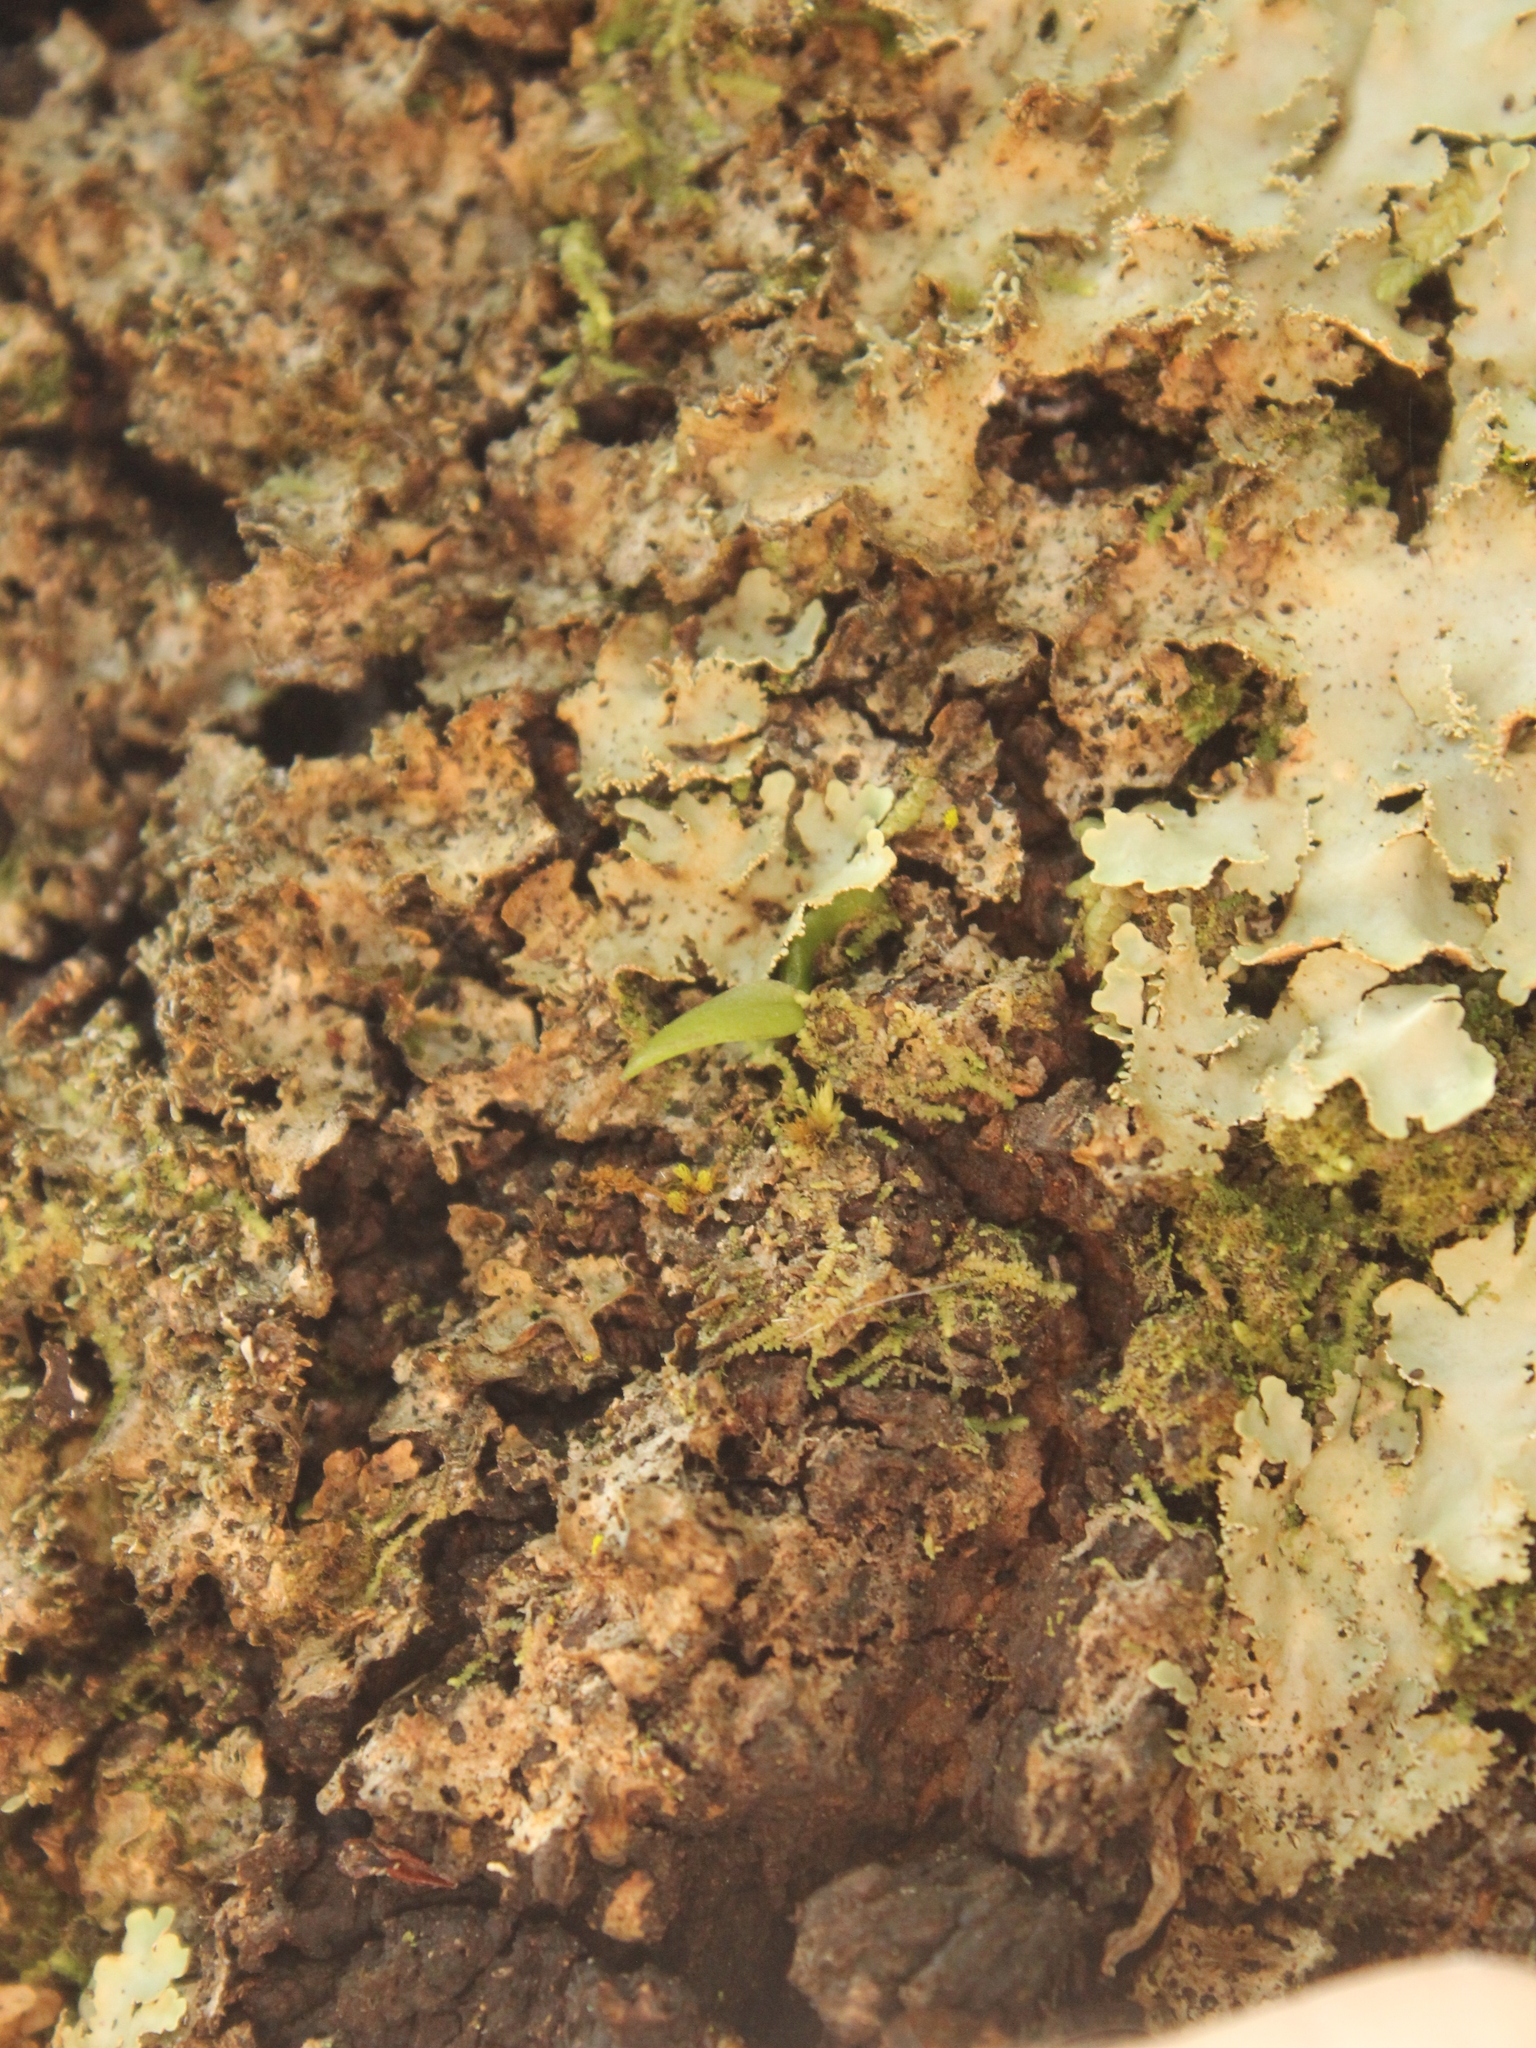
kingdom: Plantae
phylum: Tracheophyta
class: Liliopsida
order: Asparagales
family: Orchidaceae
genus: Drymoanthus
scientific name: Drymoanthus adversus
